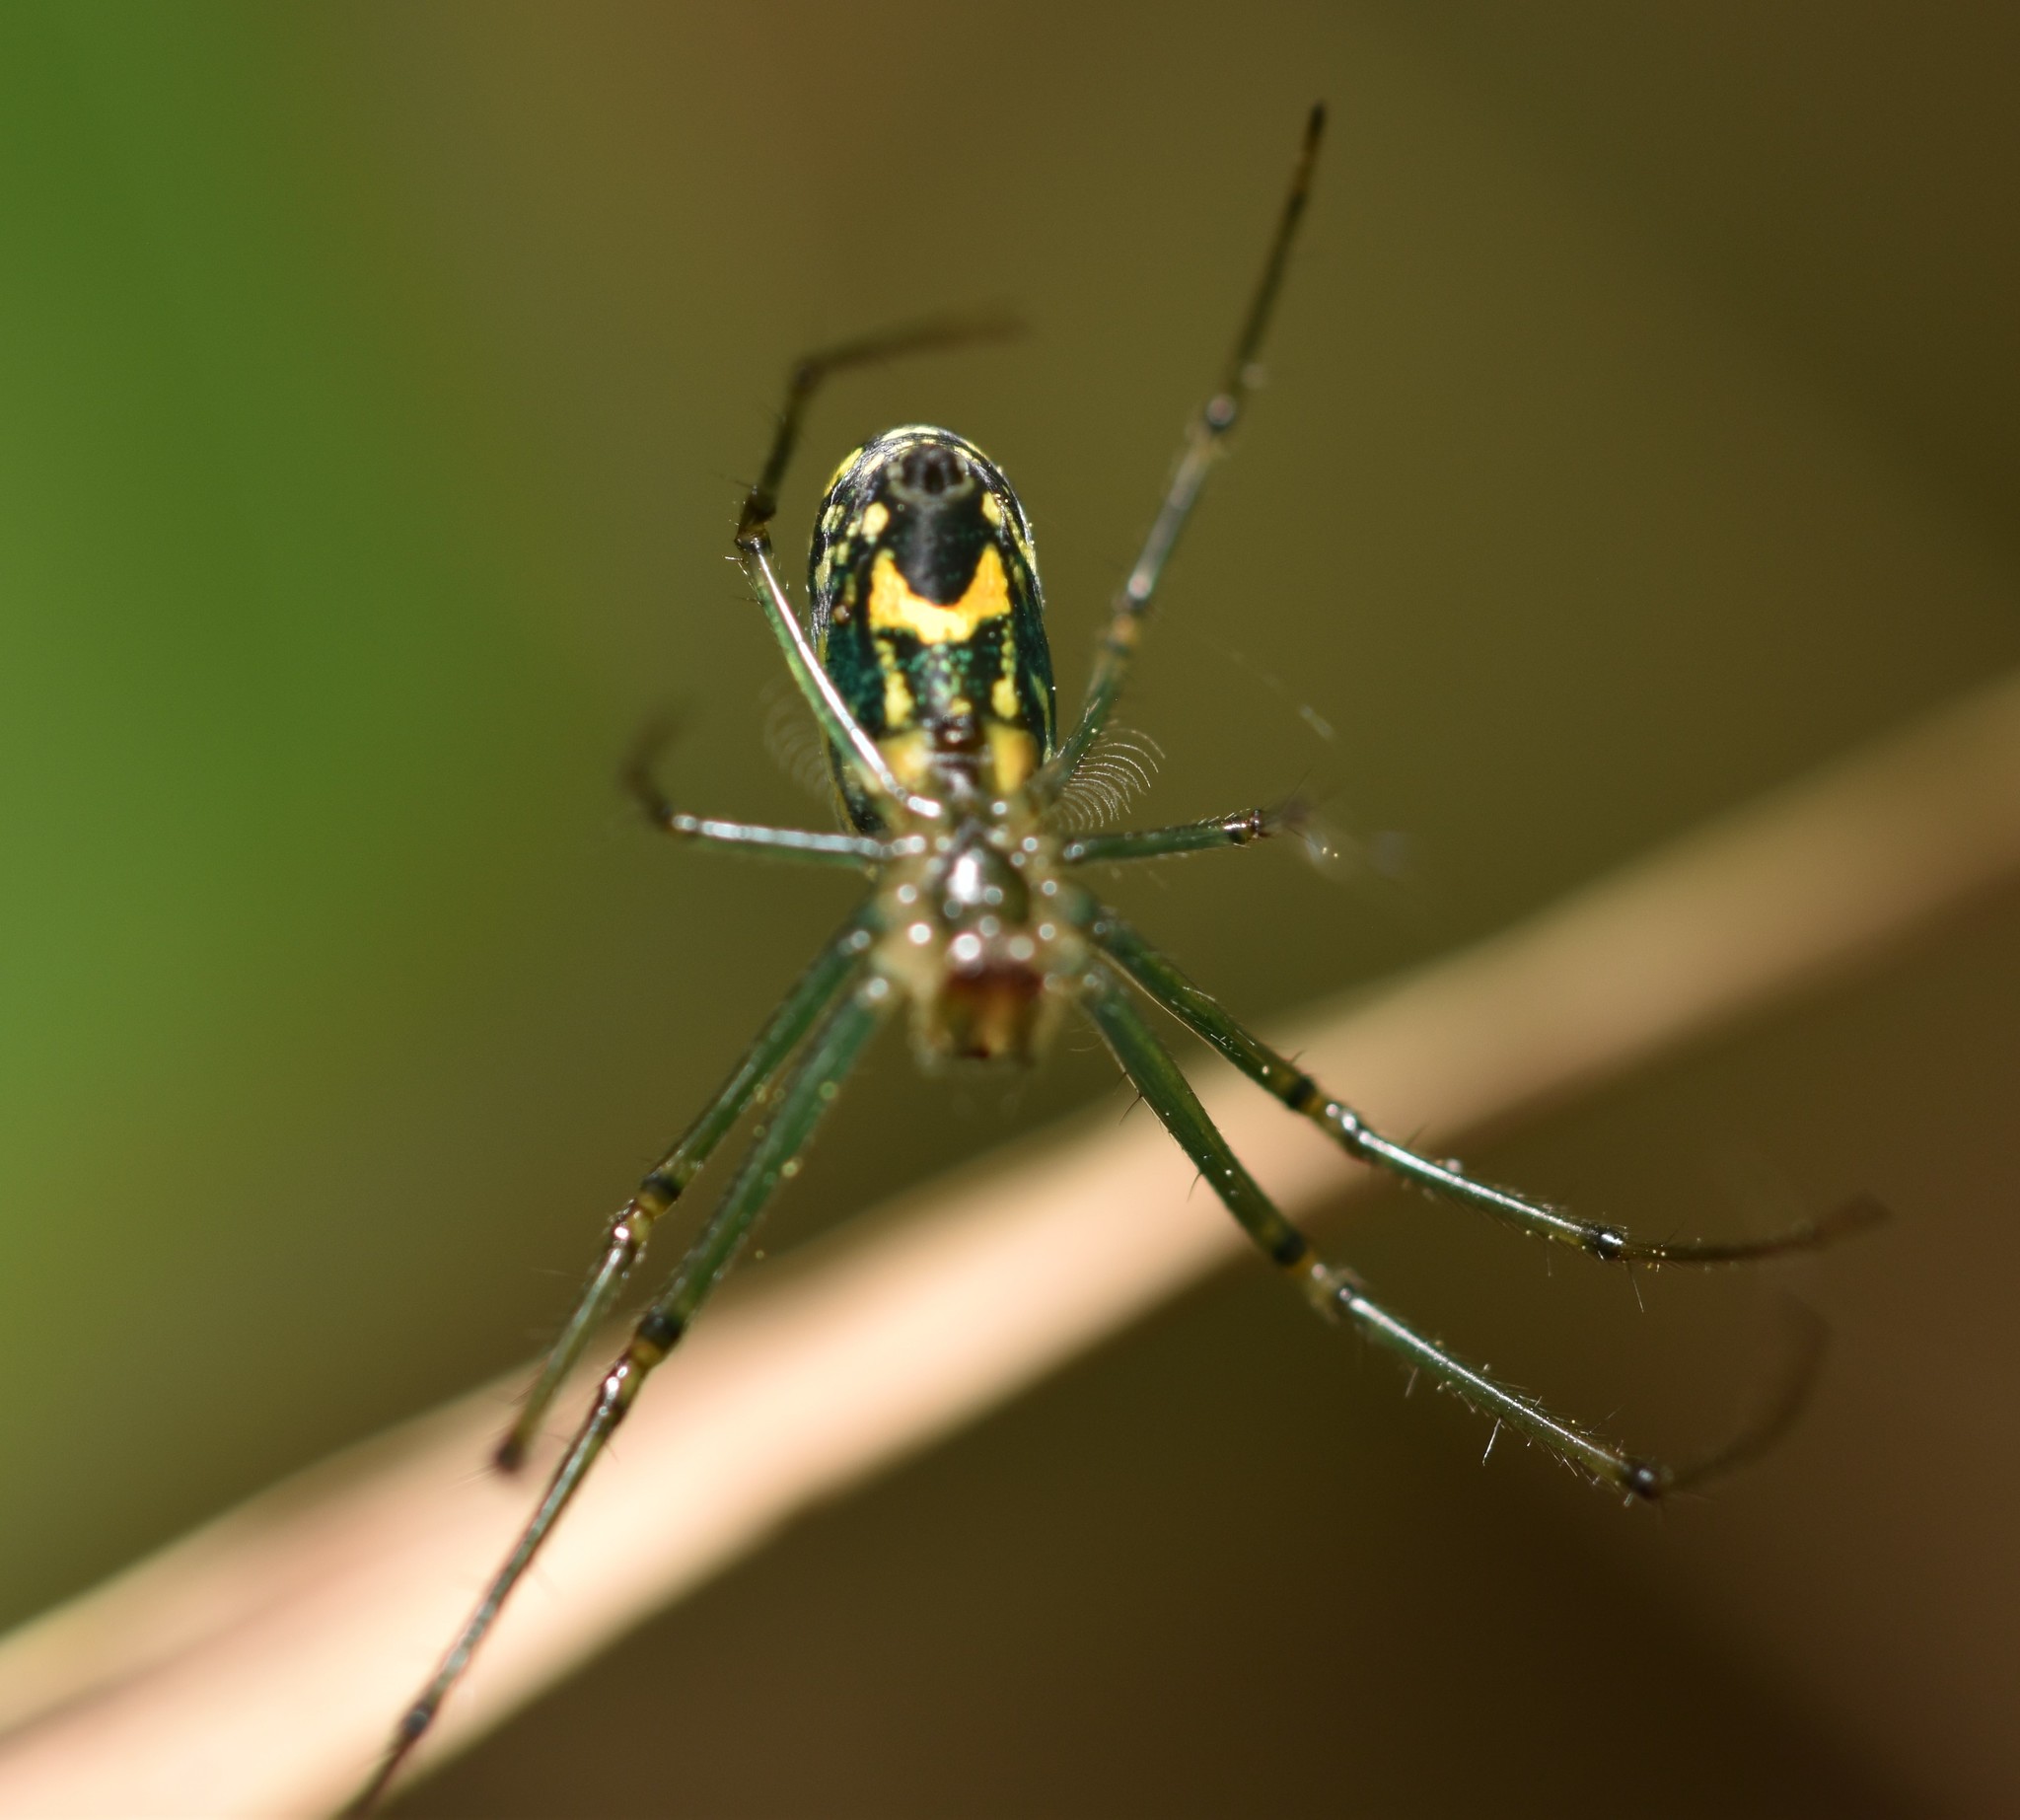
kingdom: Animalia
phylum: Arthropoda
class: Arachnida
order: Araneae
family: Tetragnathidae
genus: Leucauge
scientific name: Leucauge venusta
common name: Longjawed orb weavers
